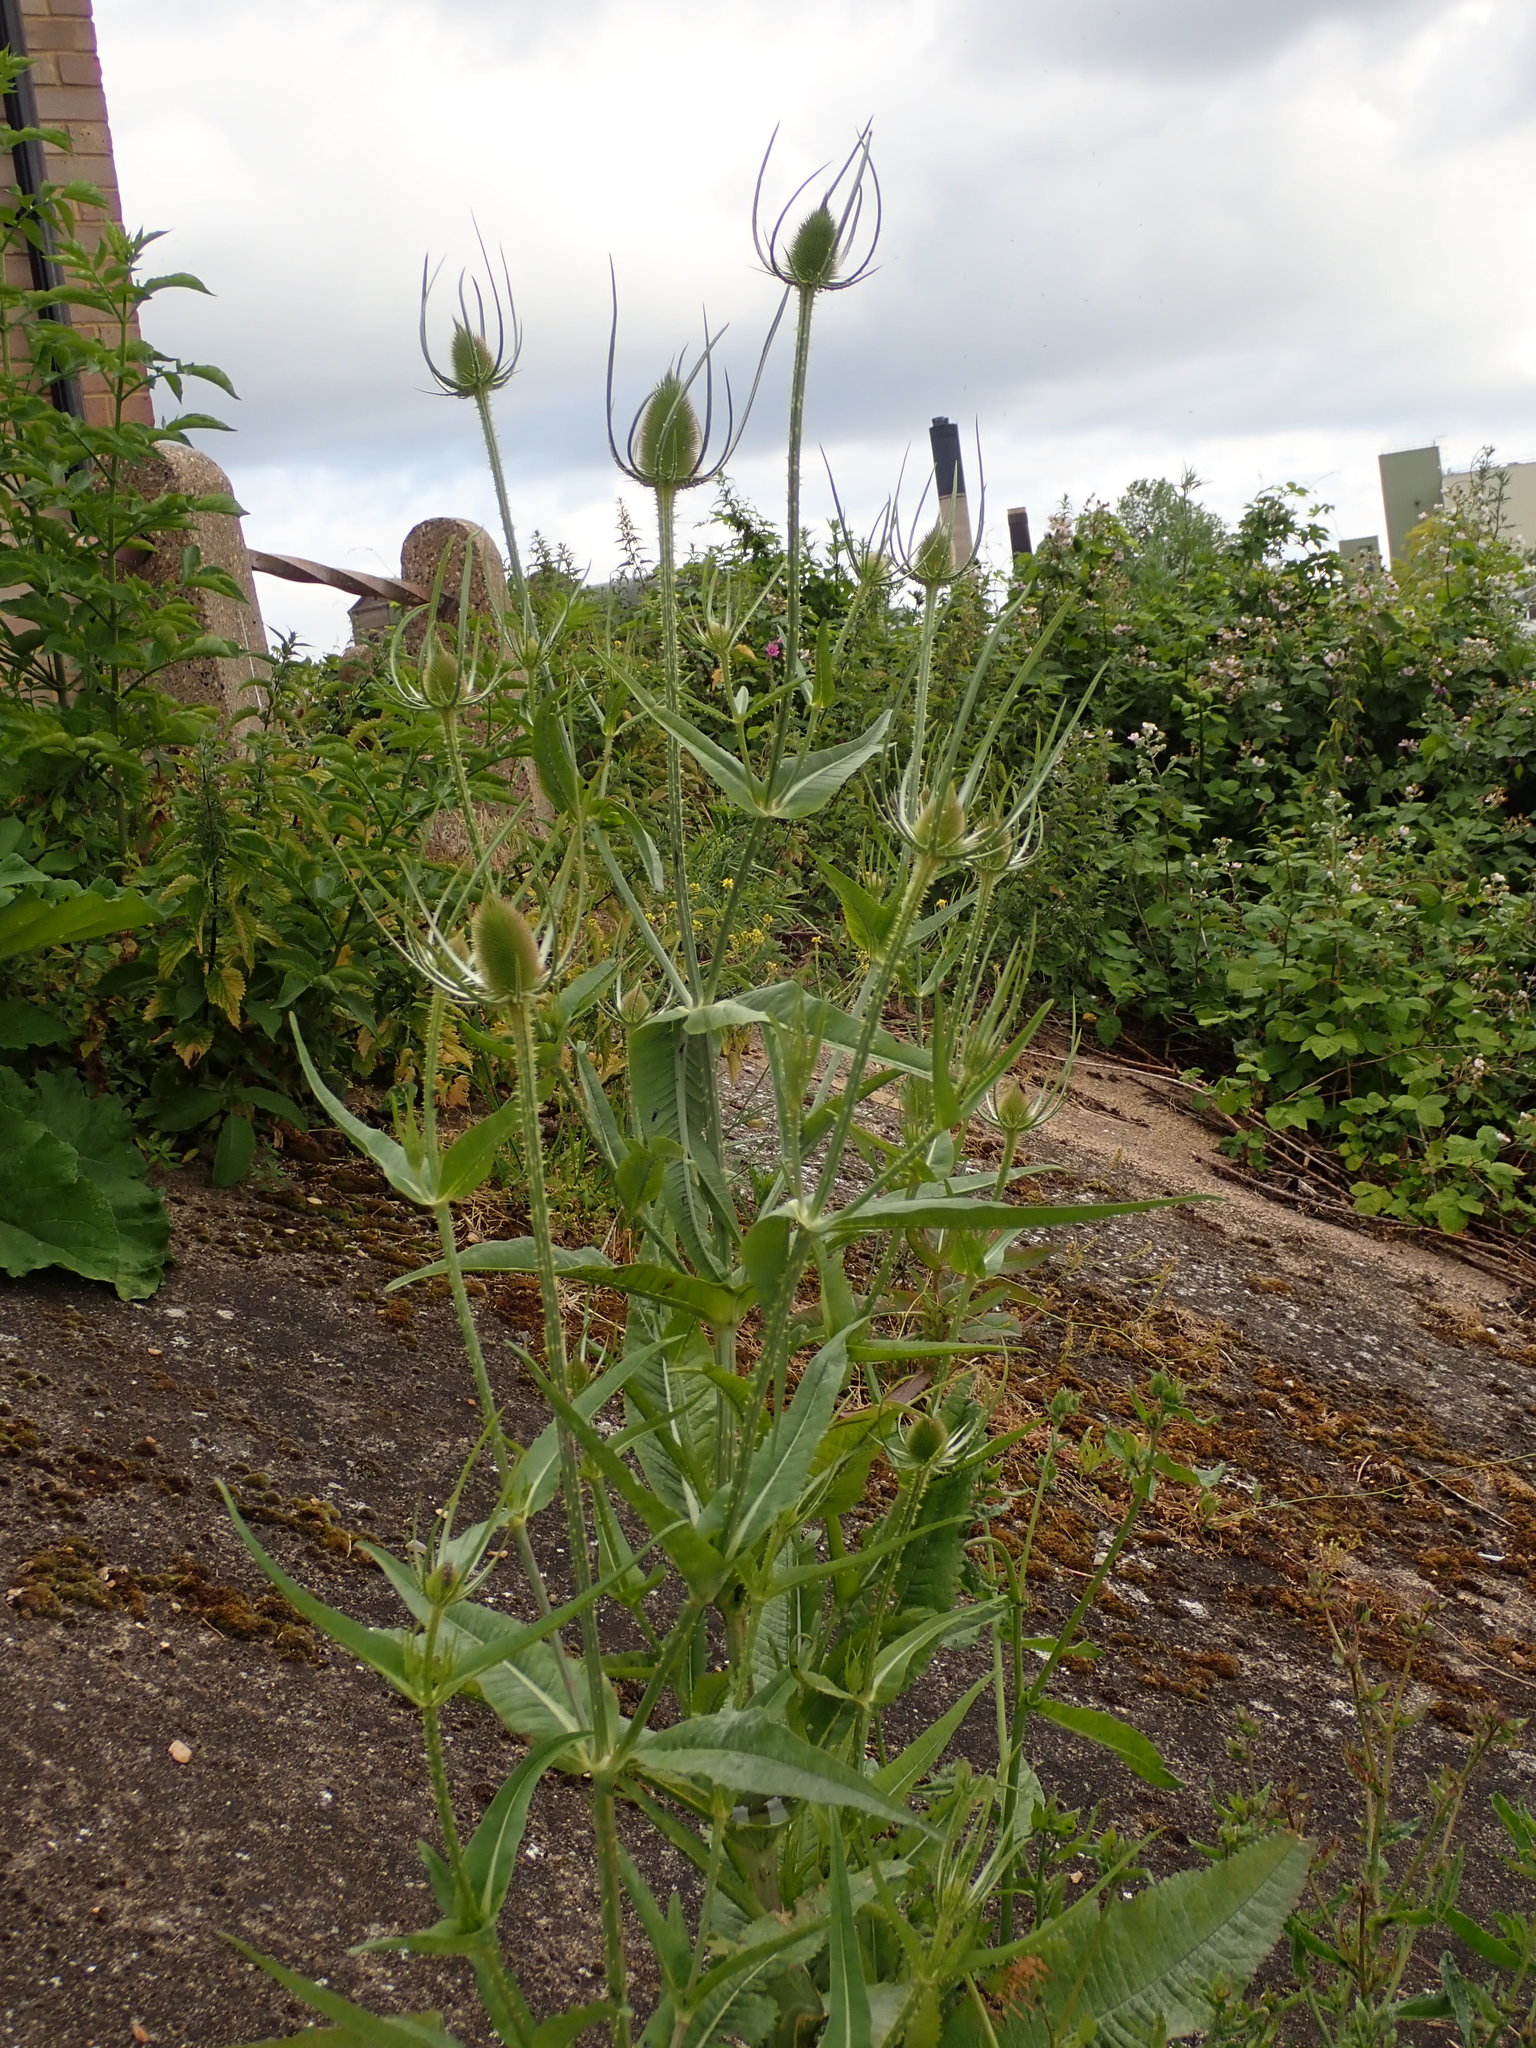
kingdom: Plantae
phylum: Tracheophyta
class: Magnoliopsida
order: Dipsacales
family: Caprifoliaceae
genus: Dipsacus
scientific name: Dipsacus fullonum
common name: Teasel
